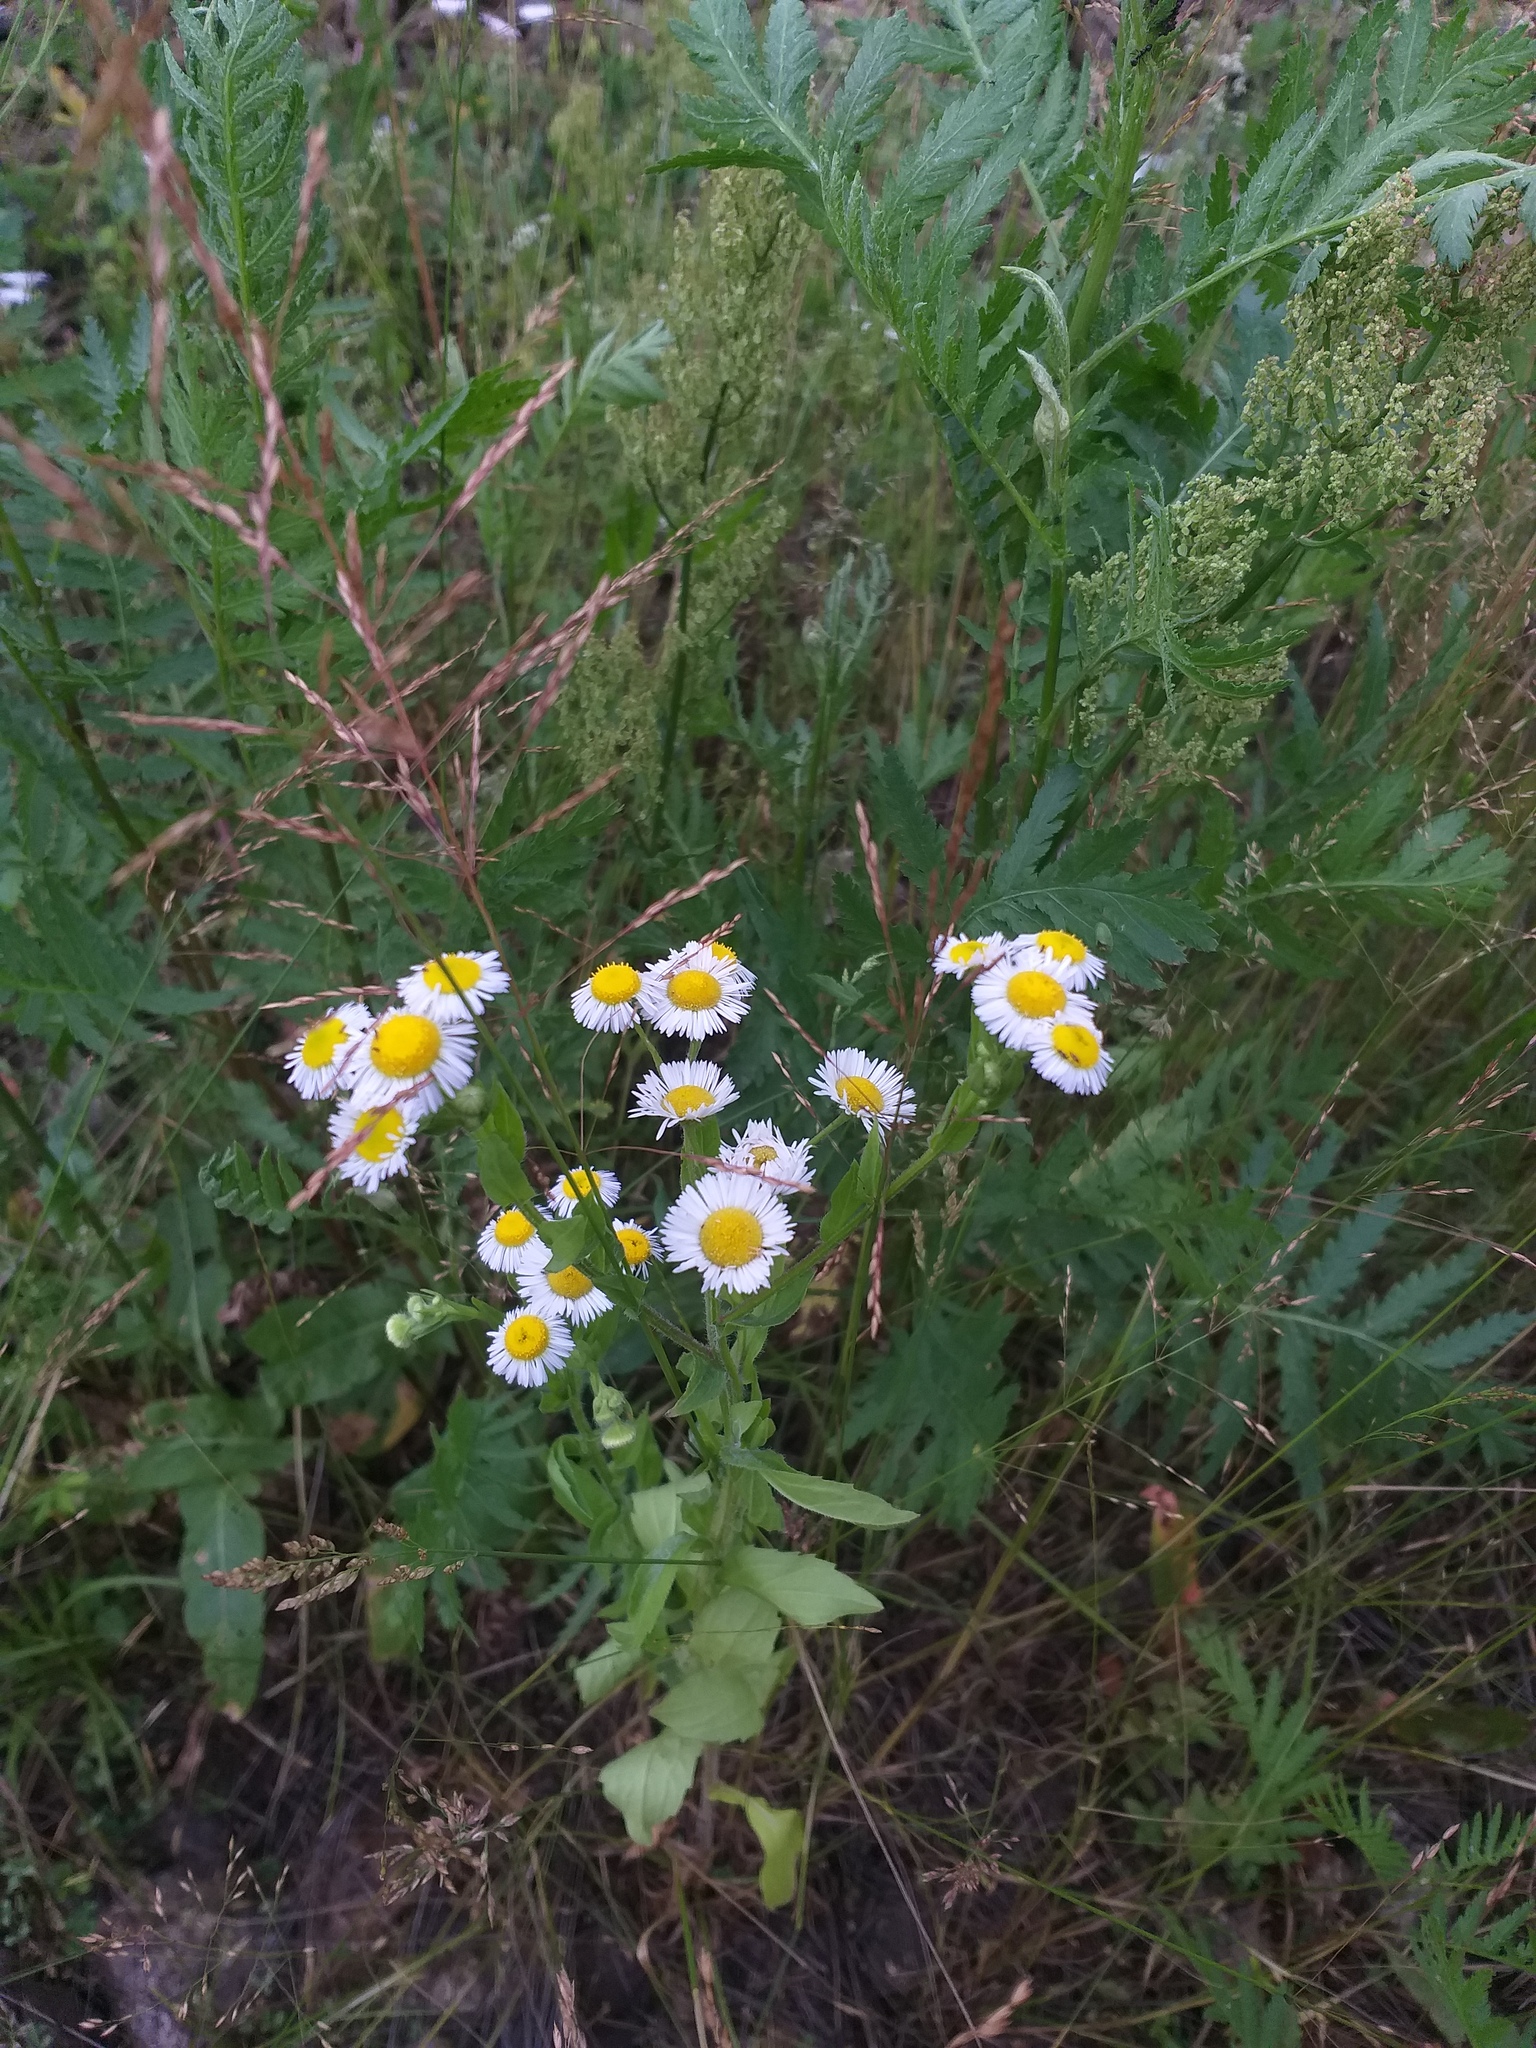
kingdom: Plantae
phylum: Tracheophyta
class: Magnoliopsida
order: Asterales
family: Asteraceae
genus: Erigeron
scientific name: Erigeron annuus
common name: Tall fleabane
